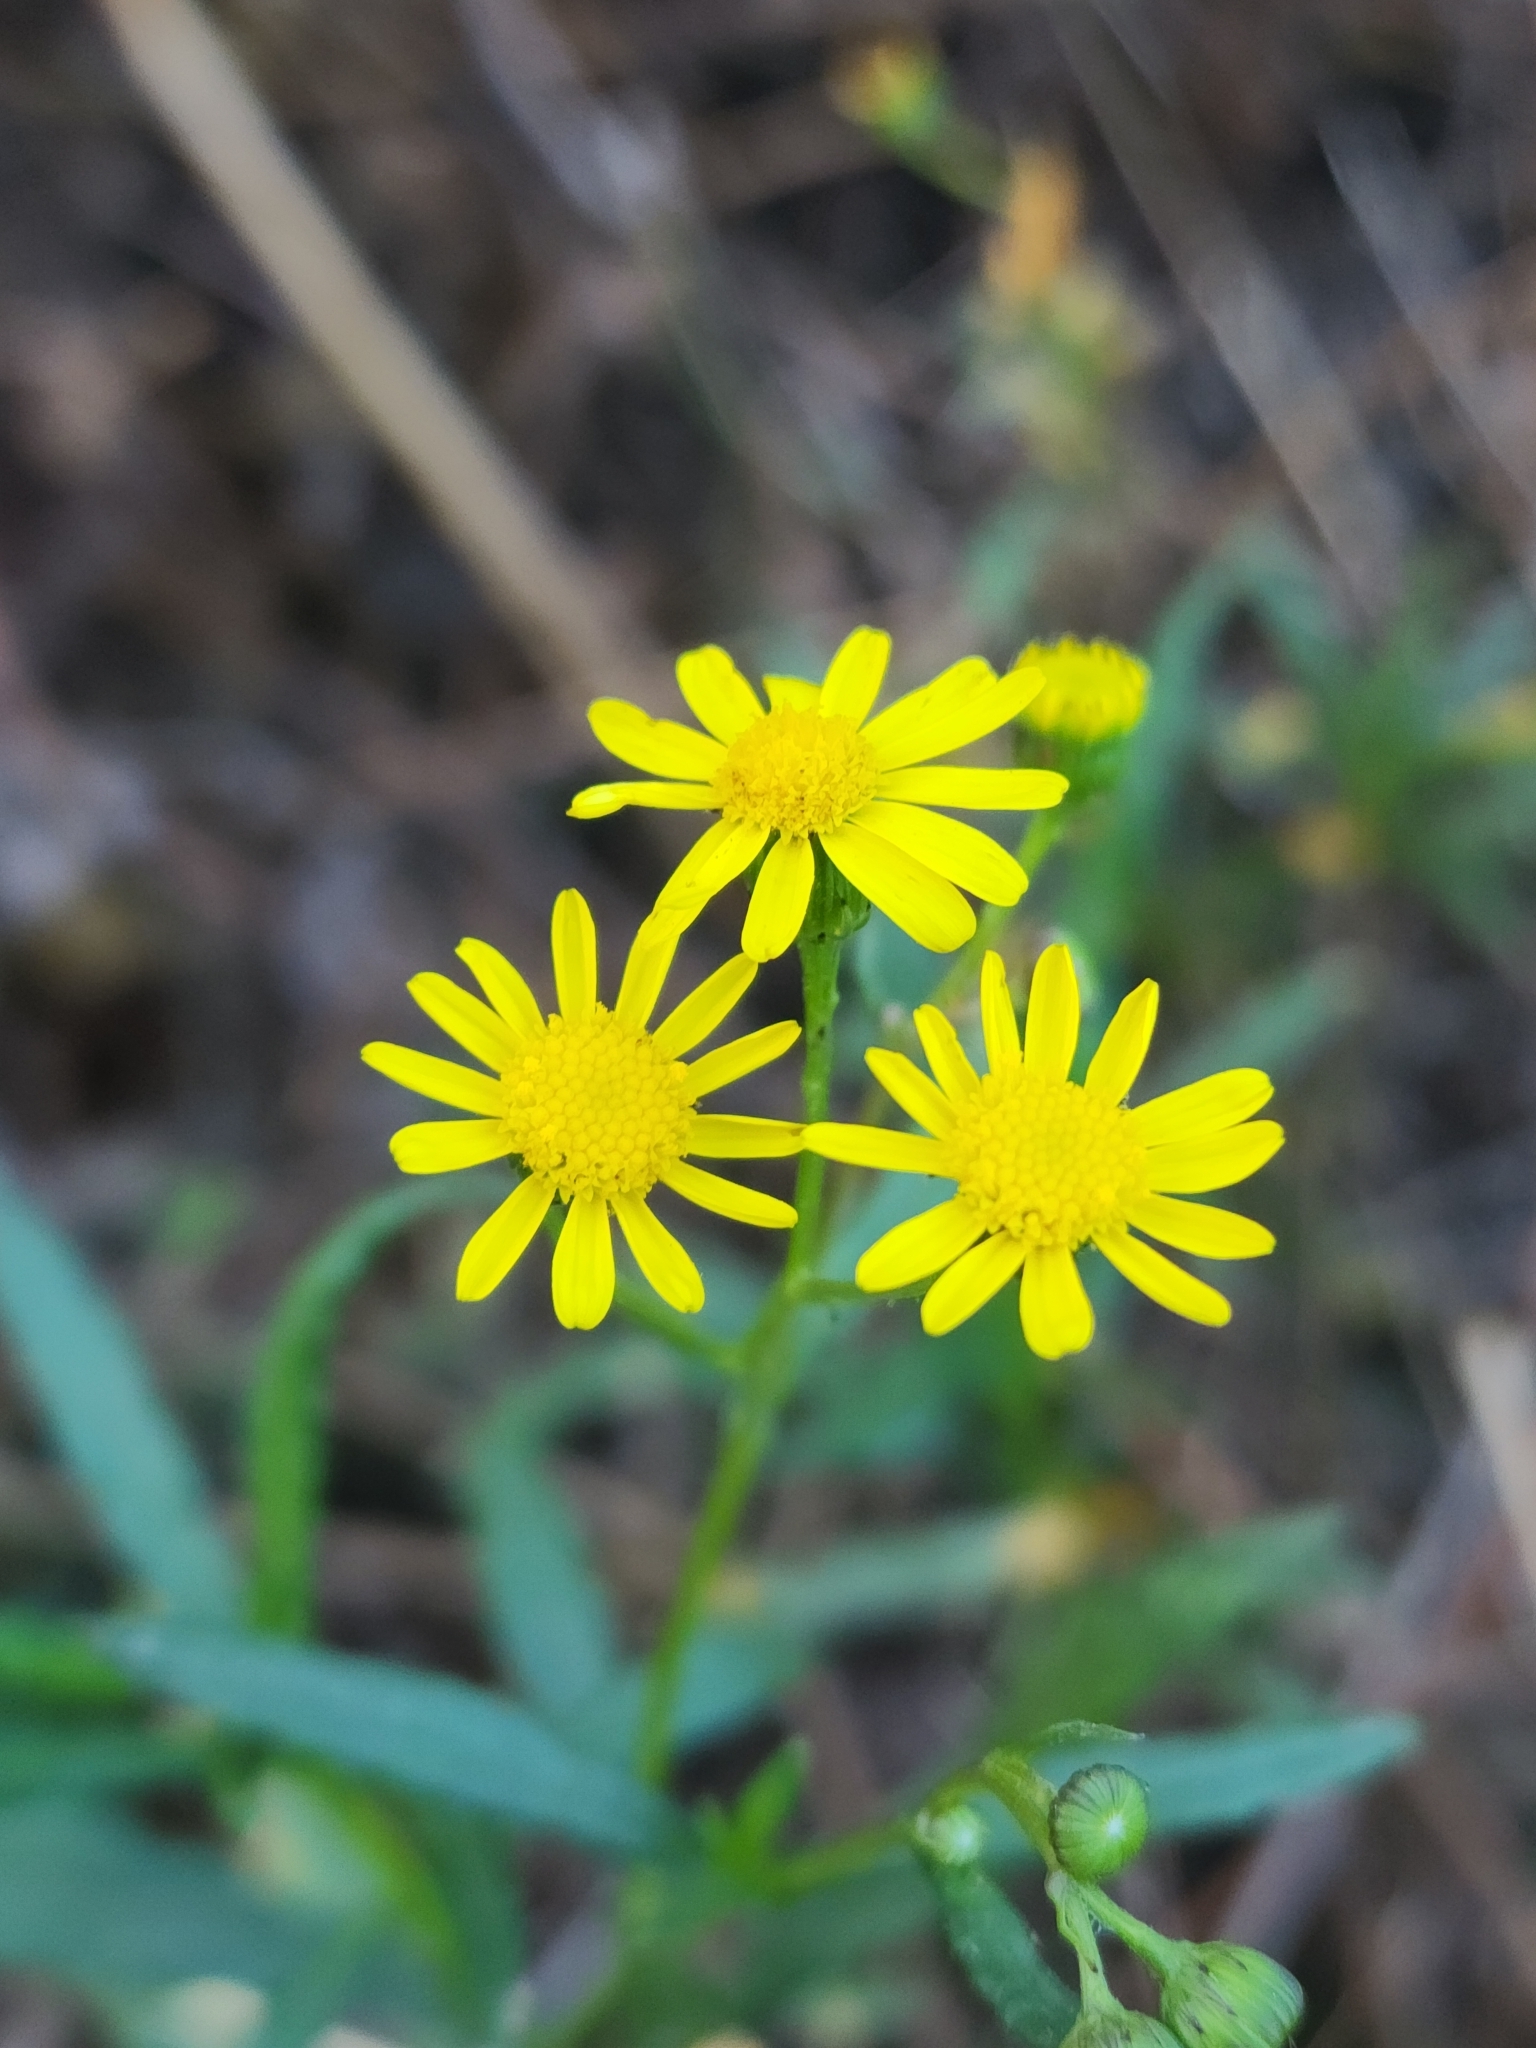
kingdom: Plantae
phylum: Tracheophyta
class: Magnoliopsida
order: Asterales
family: Asteraceae
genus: Senecio
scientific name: Senecio madagascariensis
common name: Madagascar ragwort
